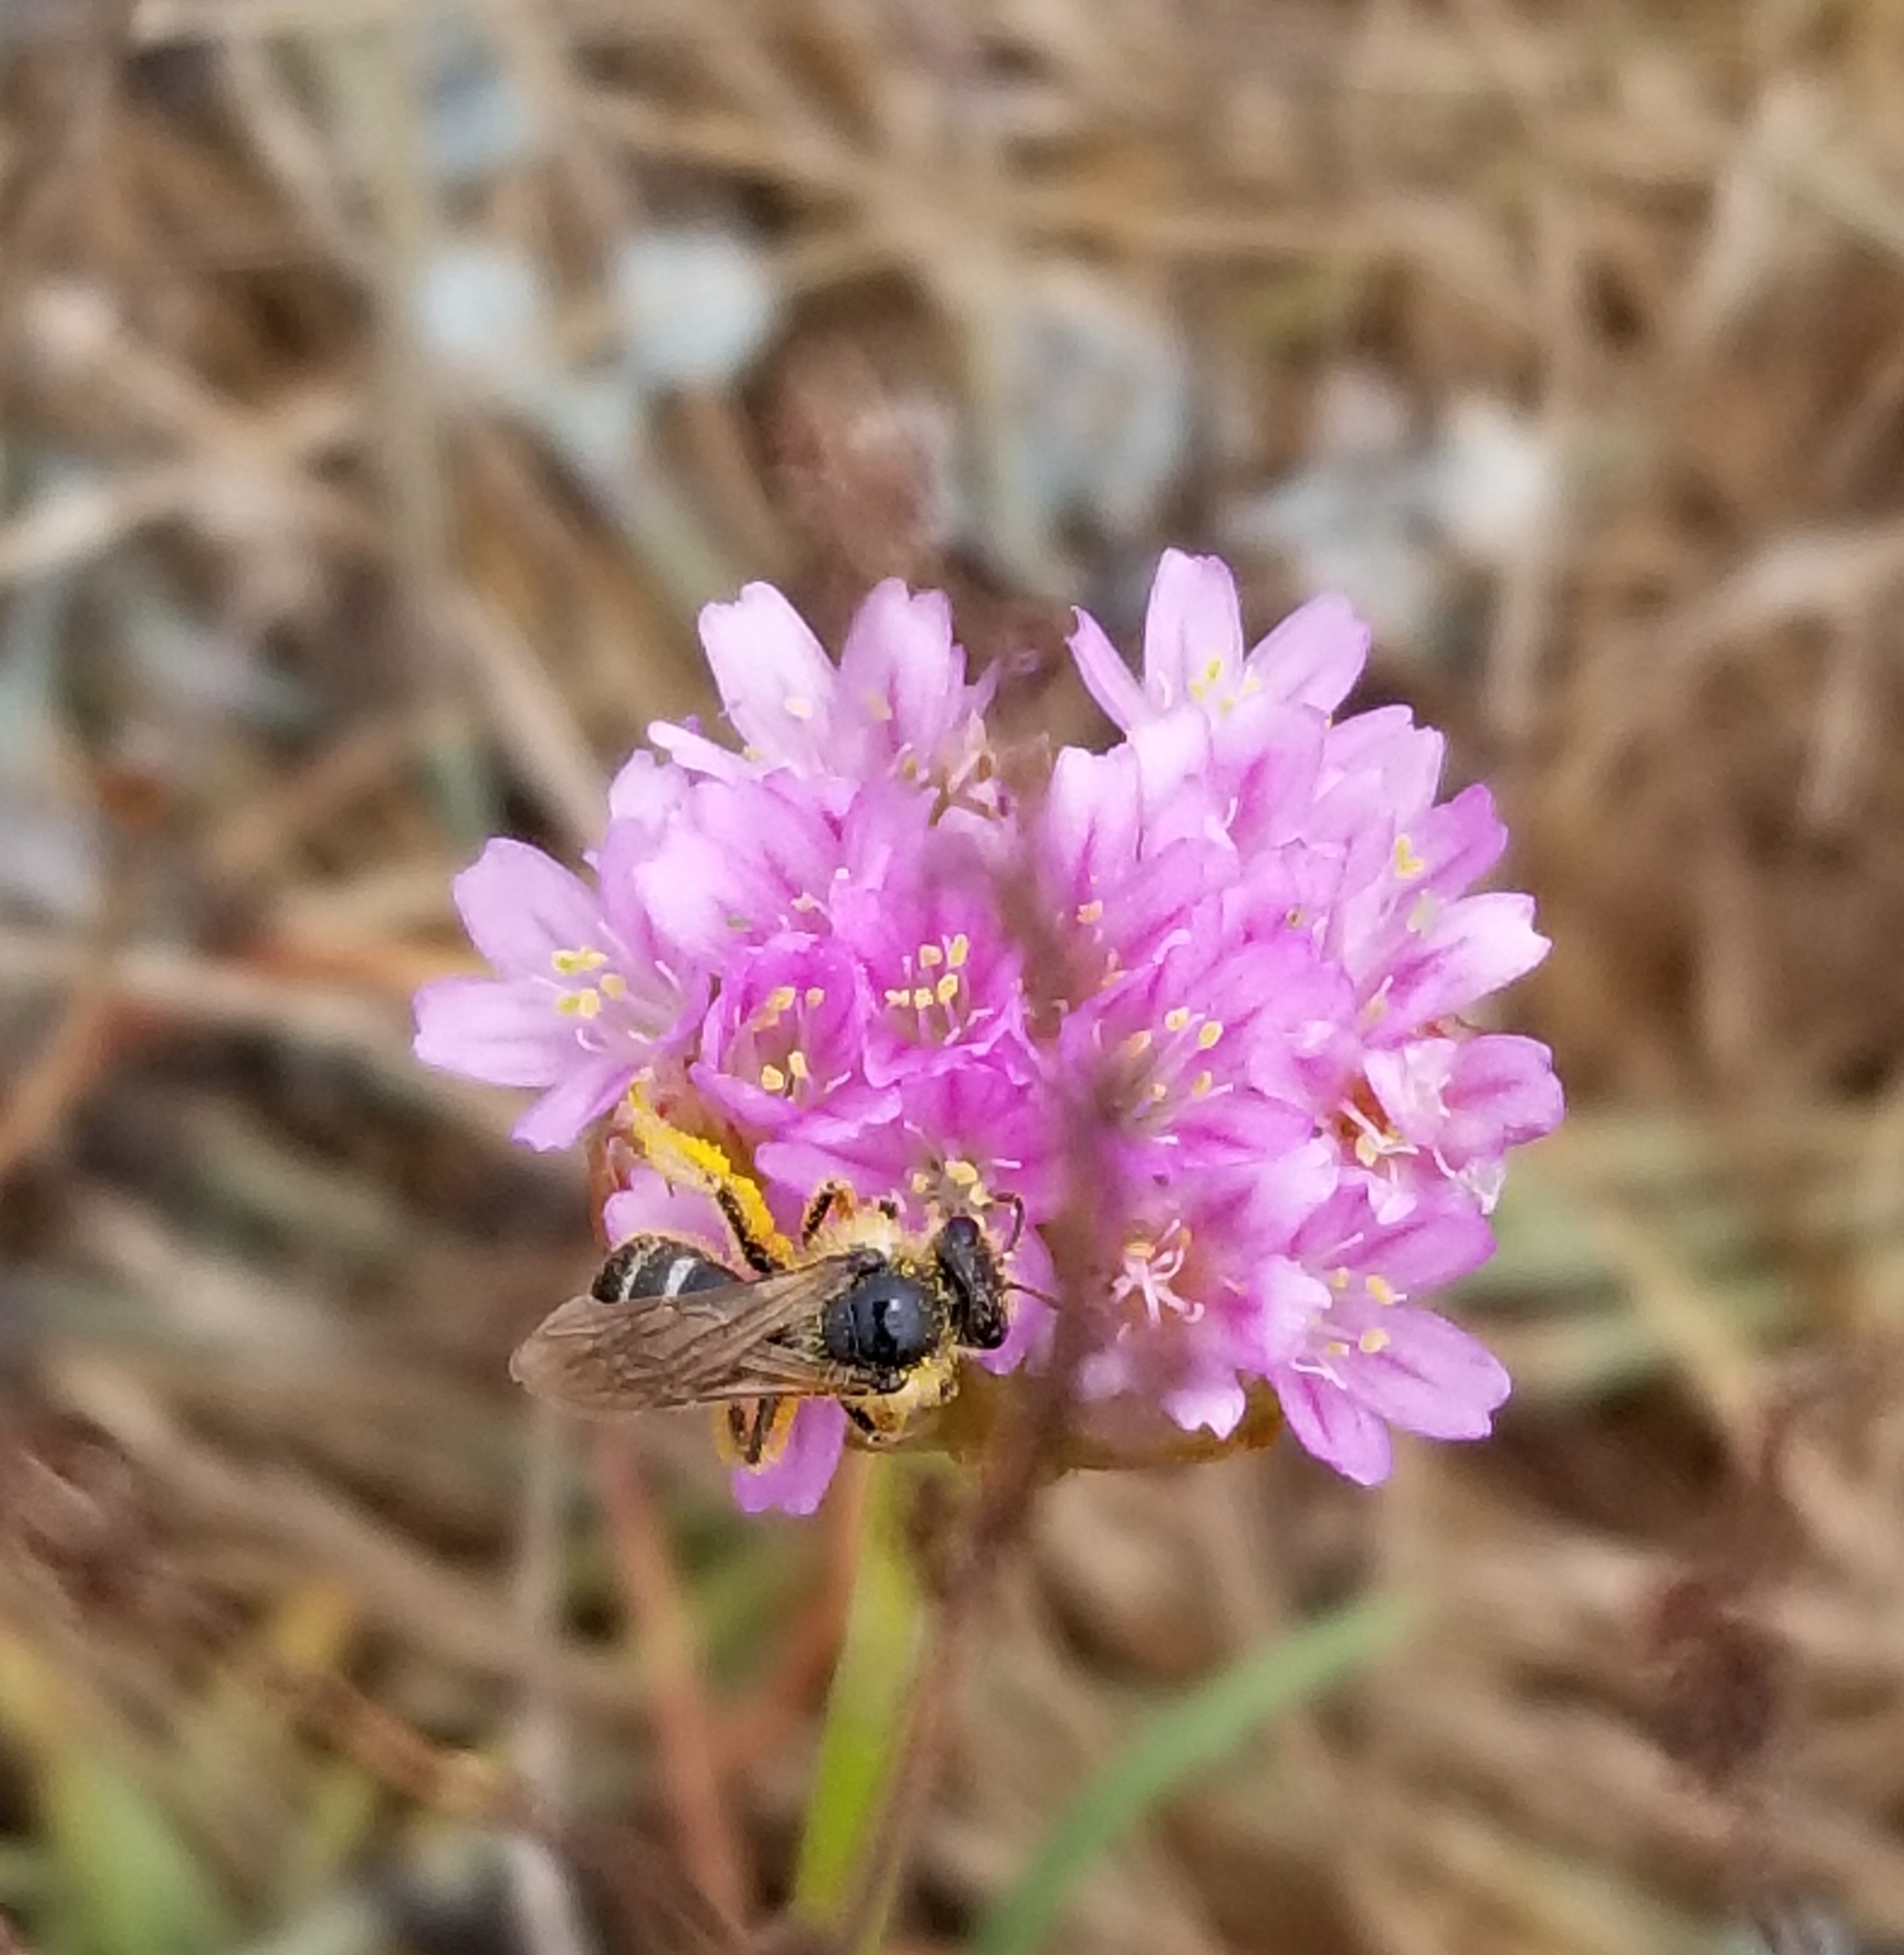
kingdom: Plantae
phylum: Tracheophyta
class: Magnoliopsida
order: Caryophyllales
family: Plumbaginaceae
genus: Armeria
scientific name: Armeria maritima
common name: Thrift
